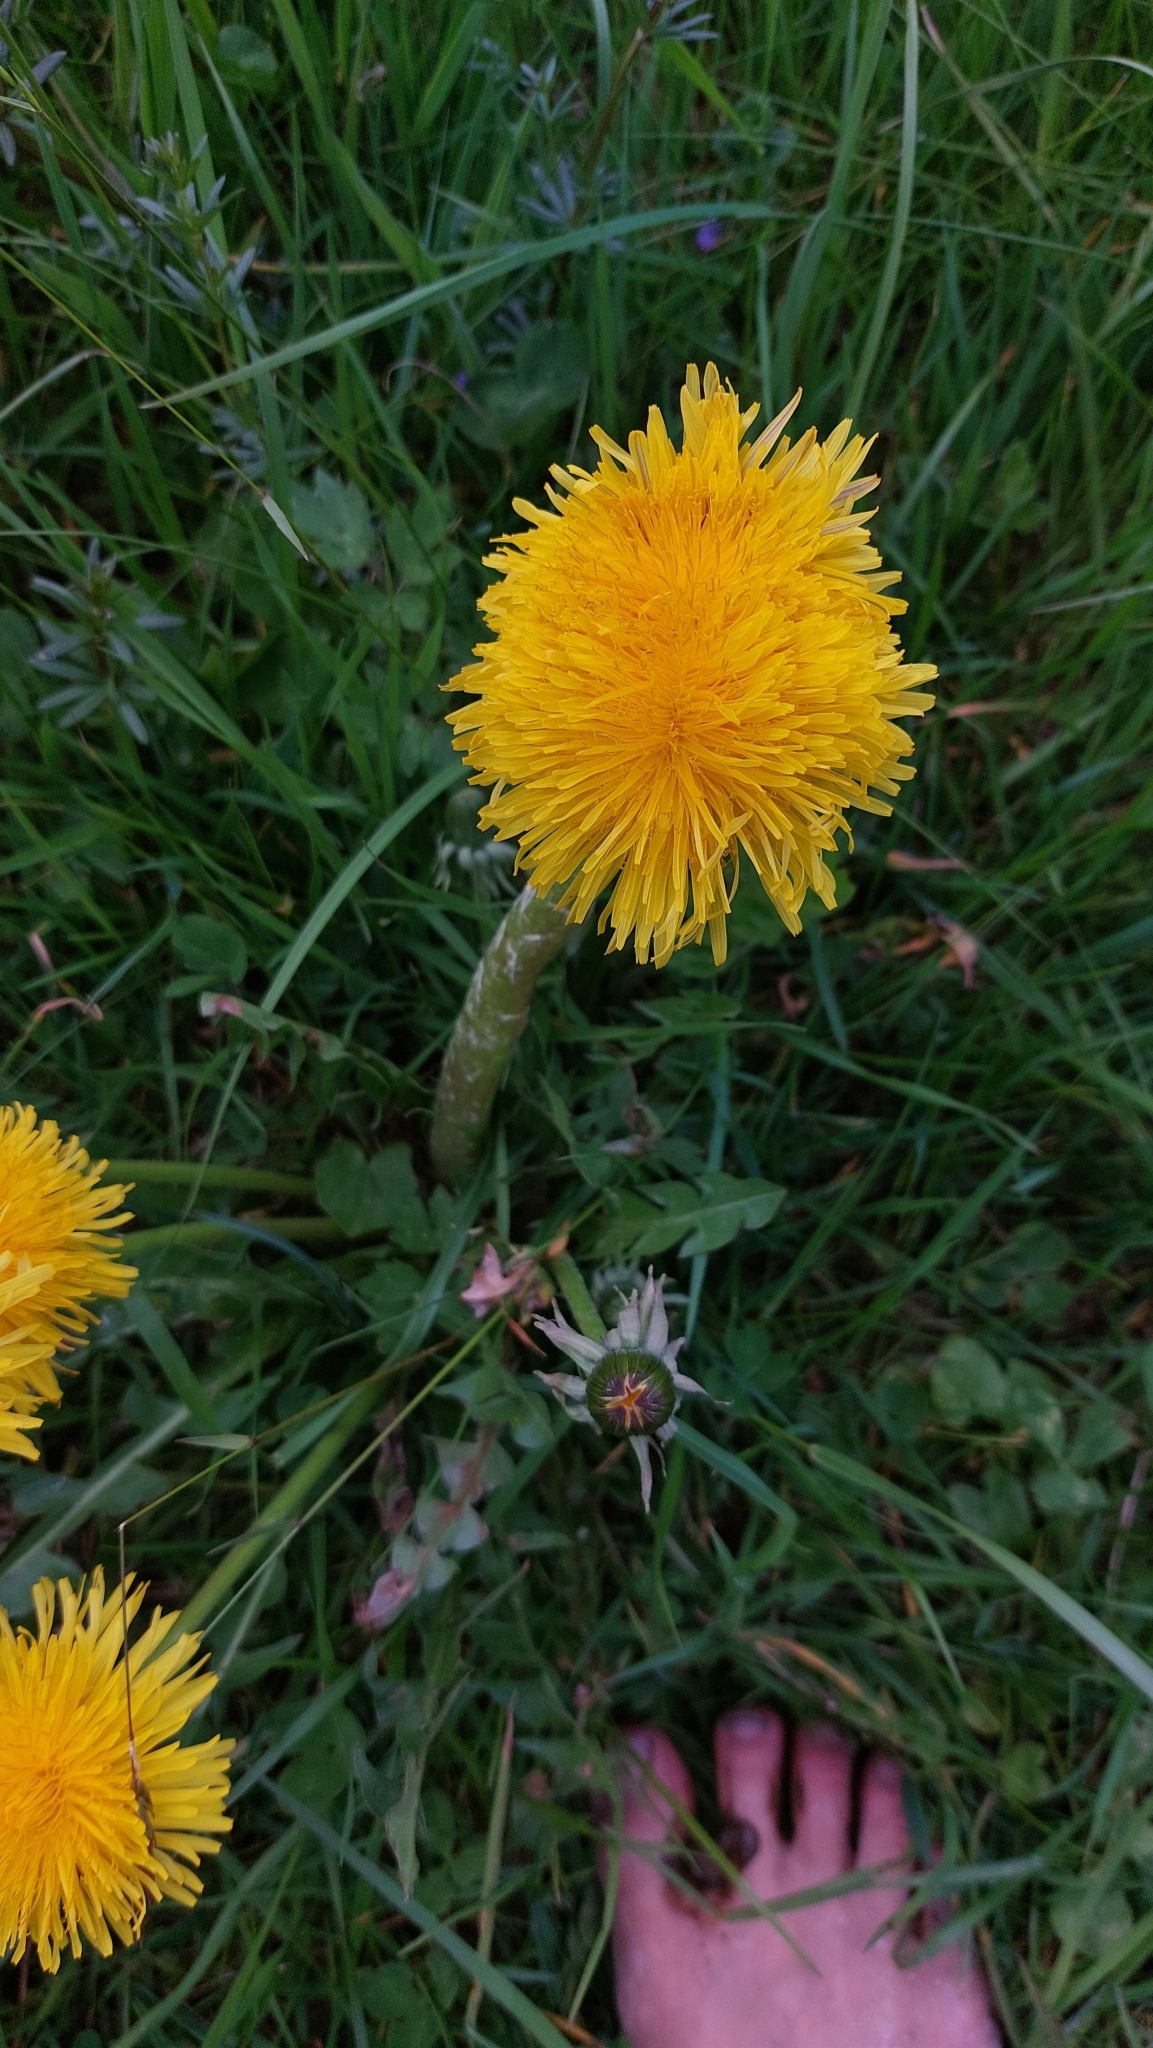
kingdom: Plantae
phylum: Tracheophyta
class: Magnoliopsida
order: Asterales
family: Asteraceae
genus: Taraxacum
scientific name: Taraxacum
